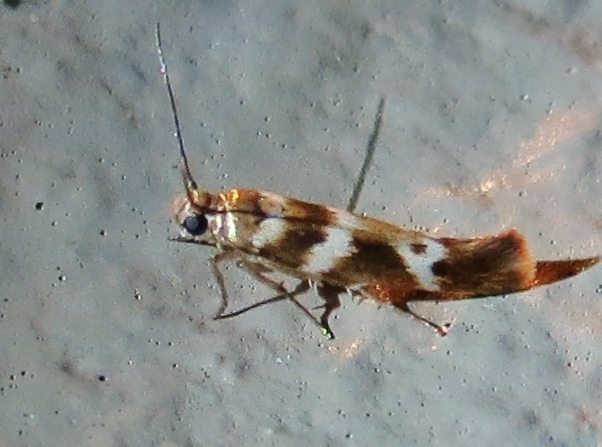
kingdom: Animalia
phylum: Arthropoda
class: Insecta
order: Lepidoptera
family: Scythrididae
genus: Scythris
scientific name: Scythris trivinctella
